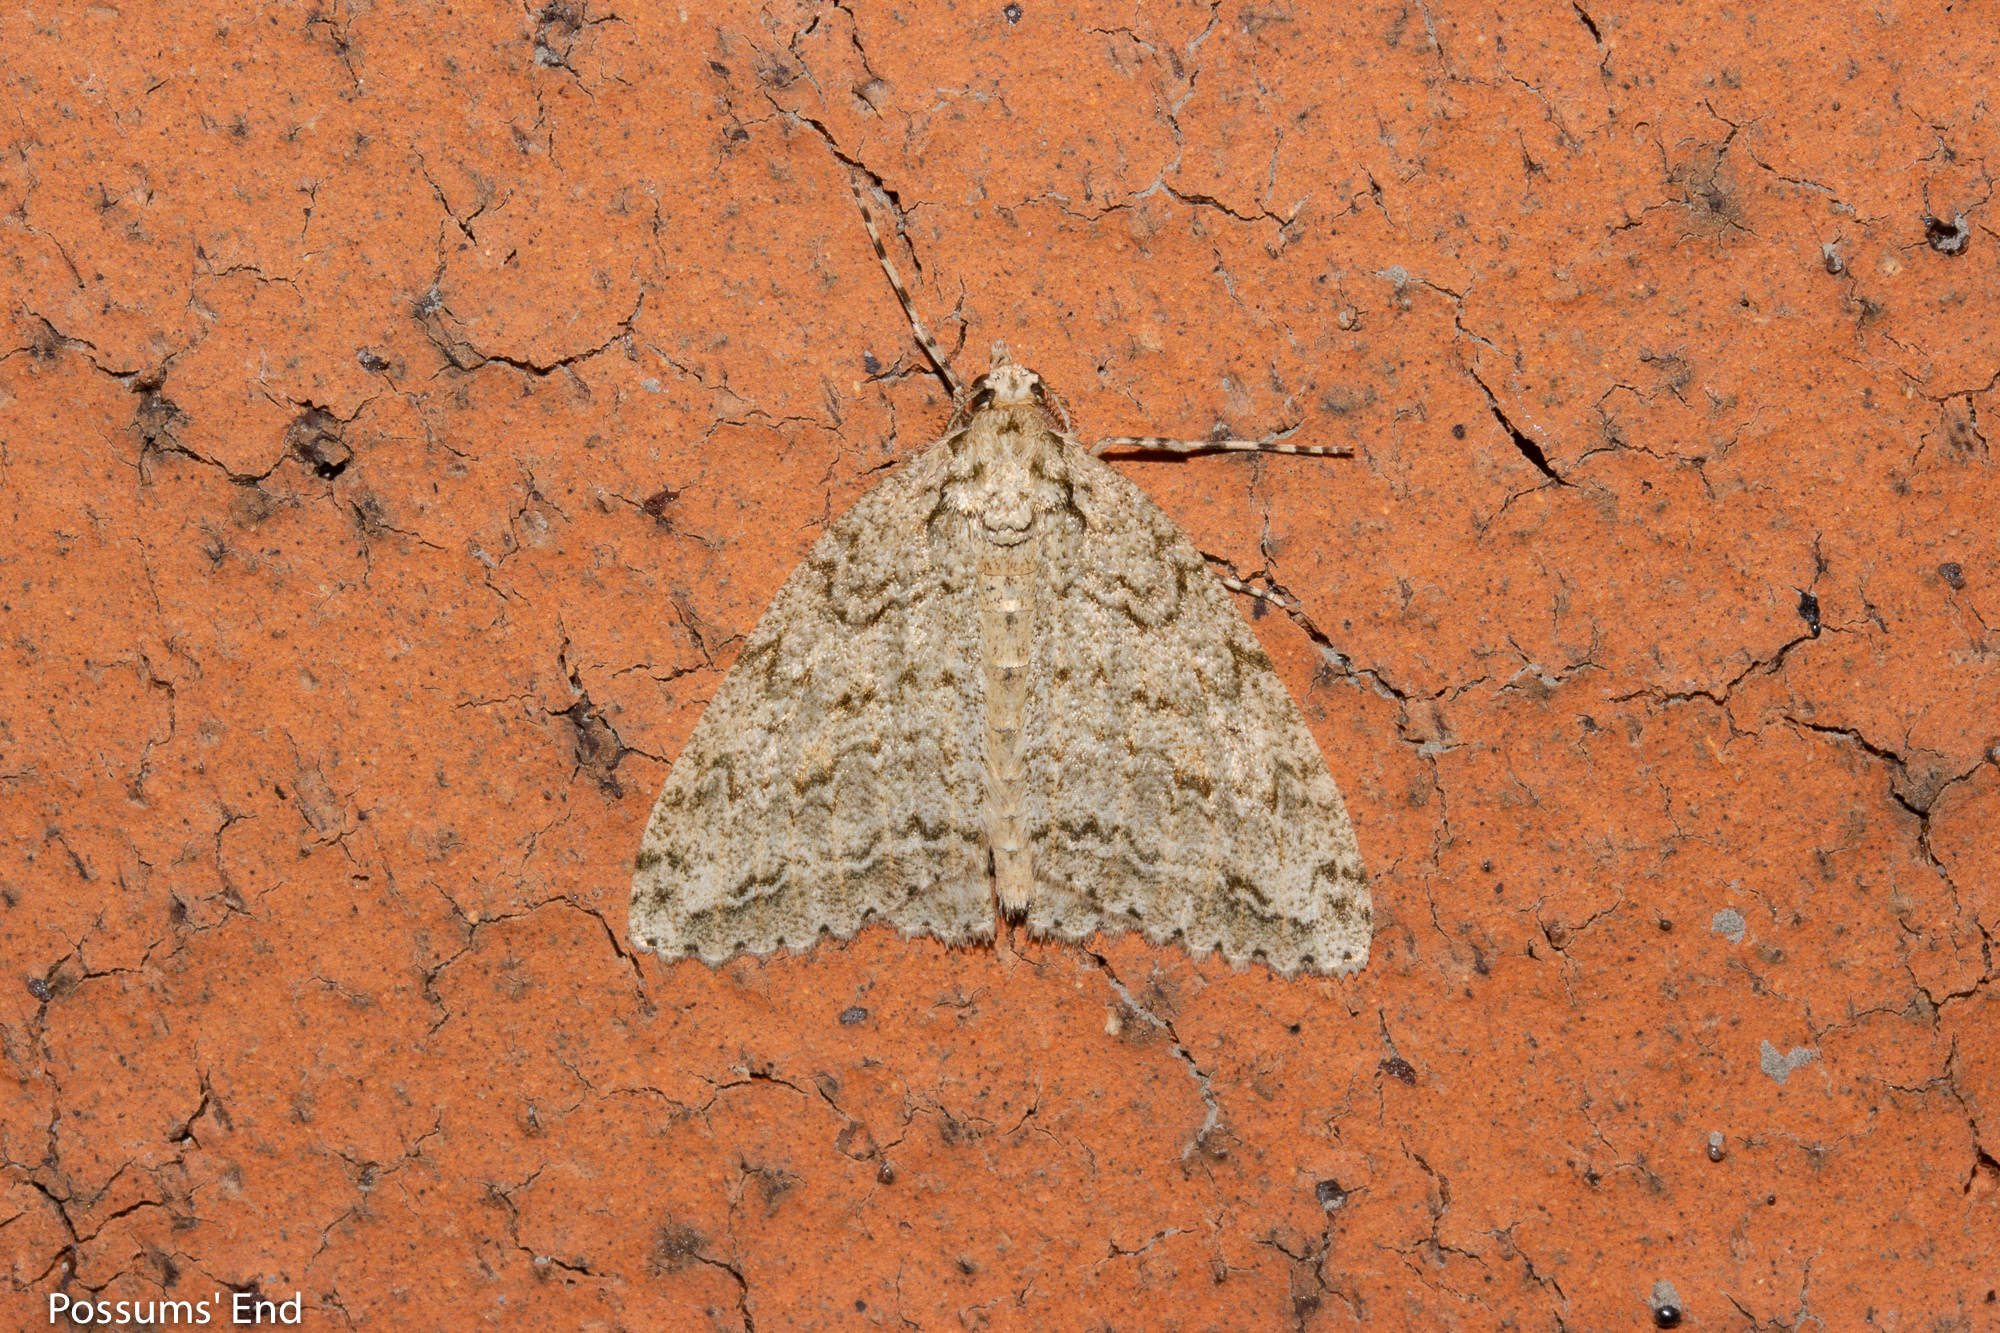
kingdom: Animalia
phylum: Arthropoda
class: Insecta
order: Lepidoptera
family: Geometridae
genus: Pseudocoremia
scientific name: Pseudocoremia rudisata
